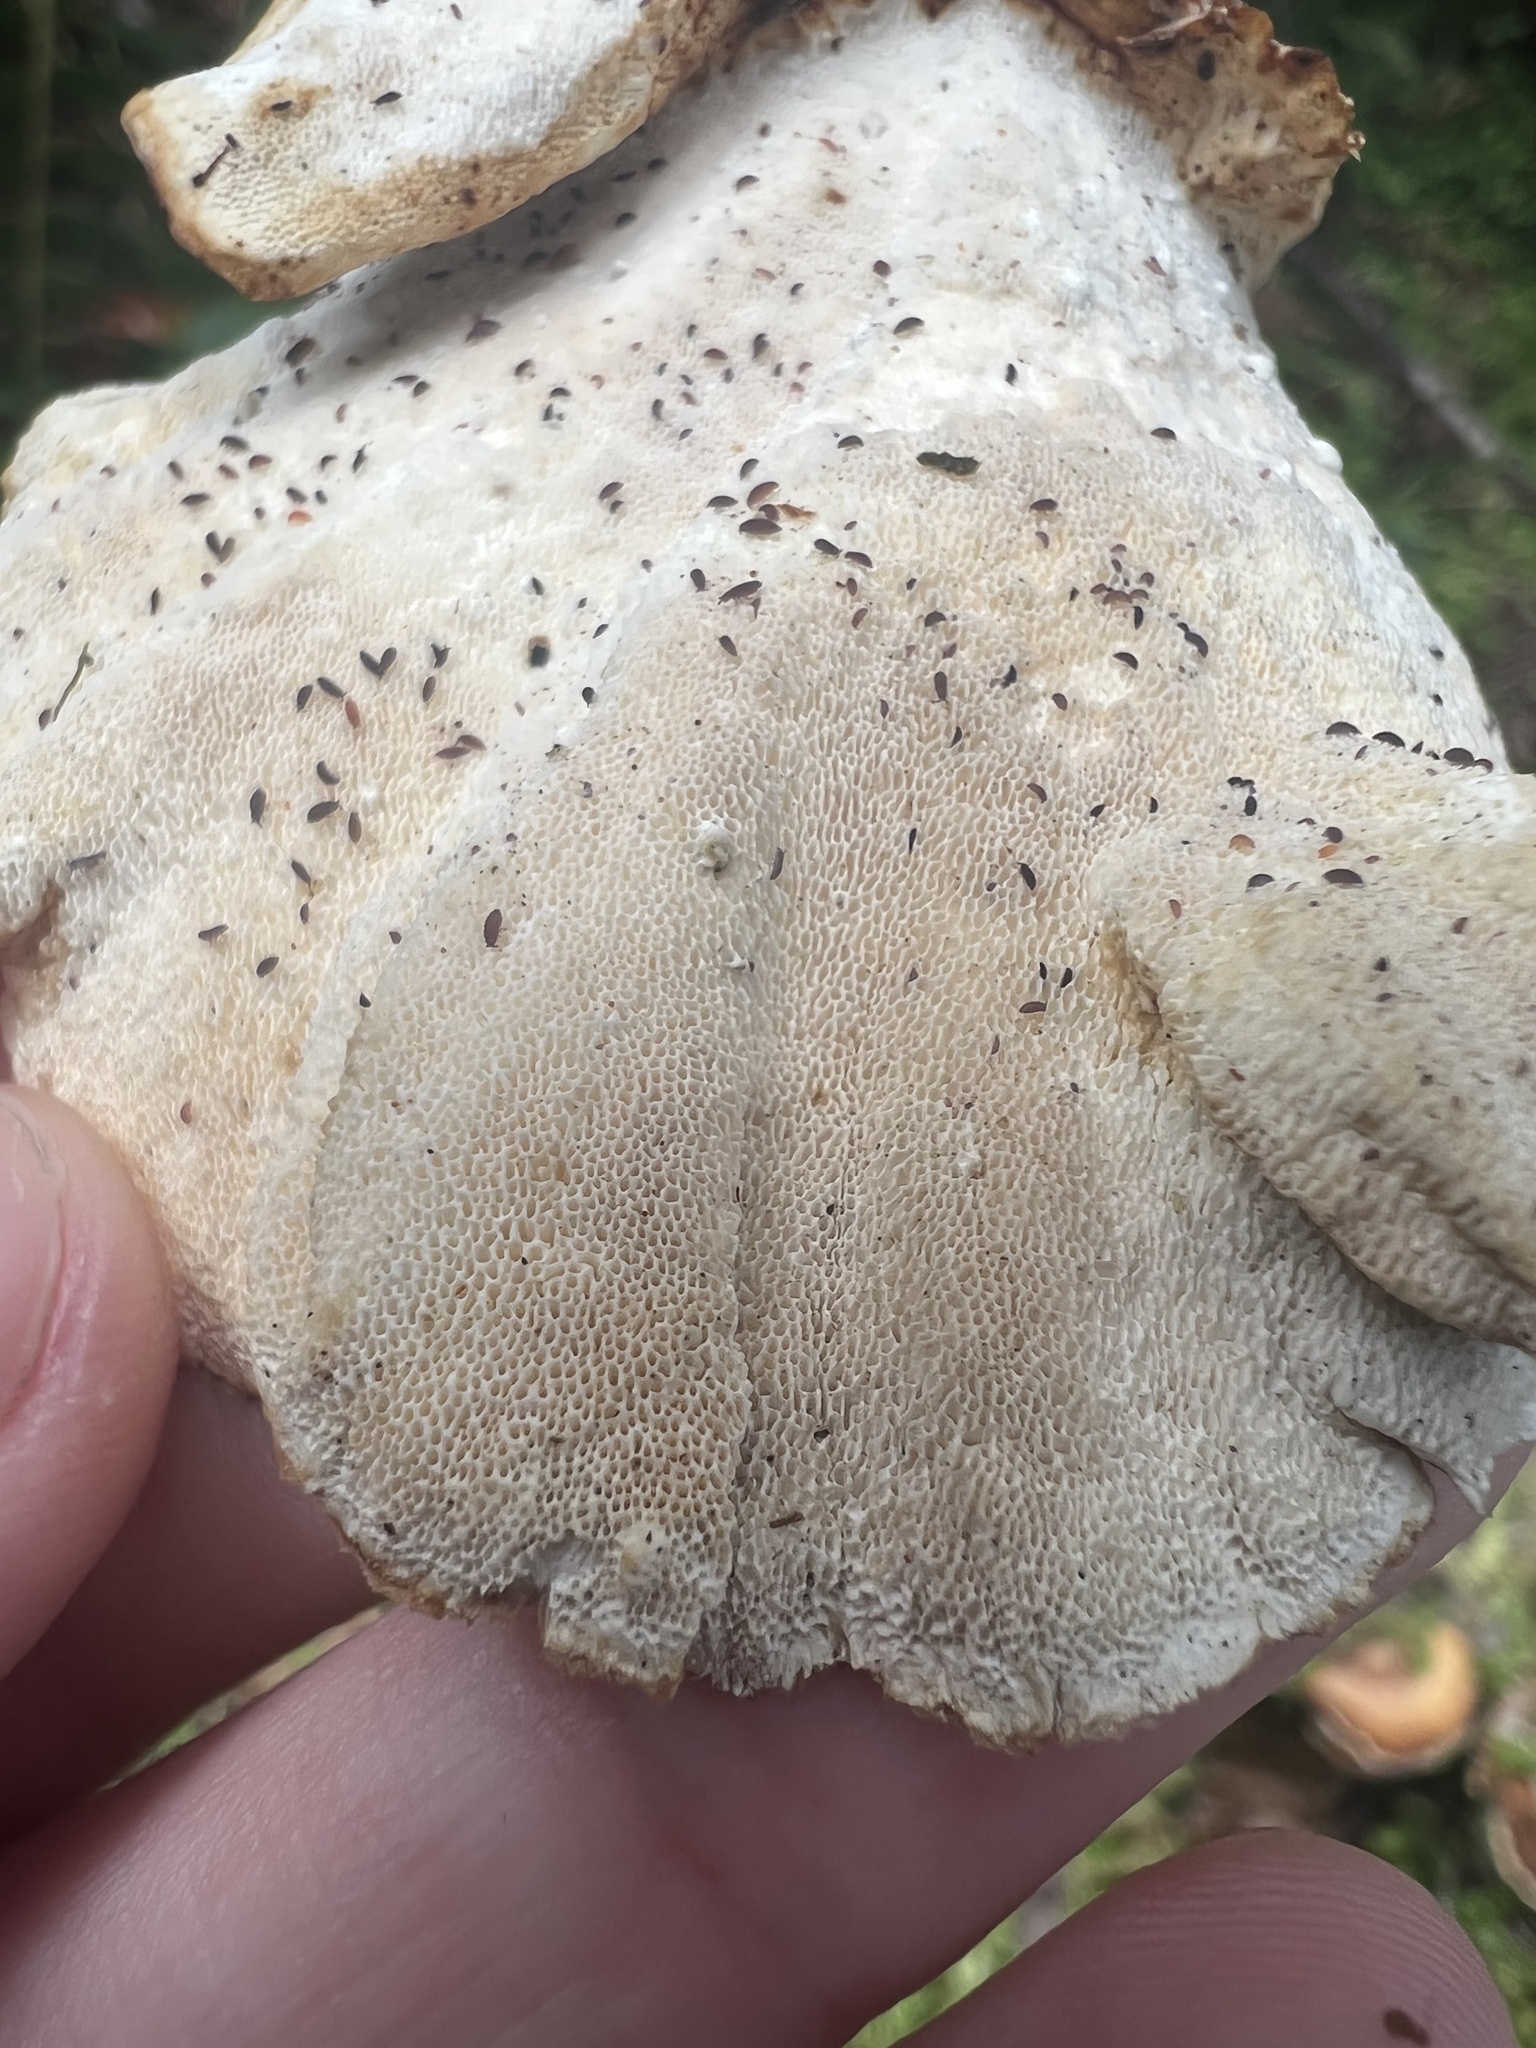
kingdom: Fungi
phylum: Basidiomycota
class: Agaricomycetes
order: Polyporales
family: Polyporaceae
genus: Trametes
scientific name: Trametes versicolor
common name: Turkeytail
